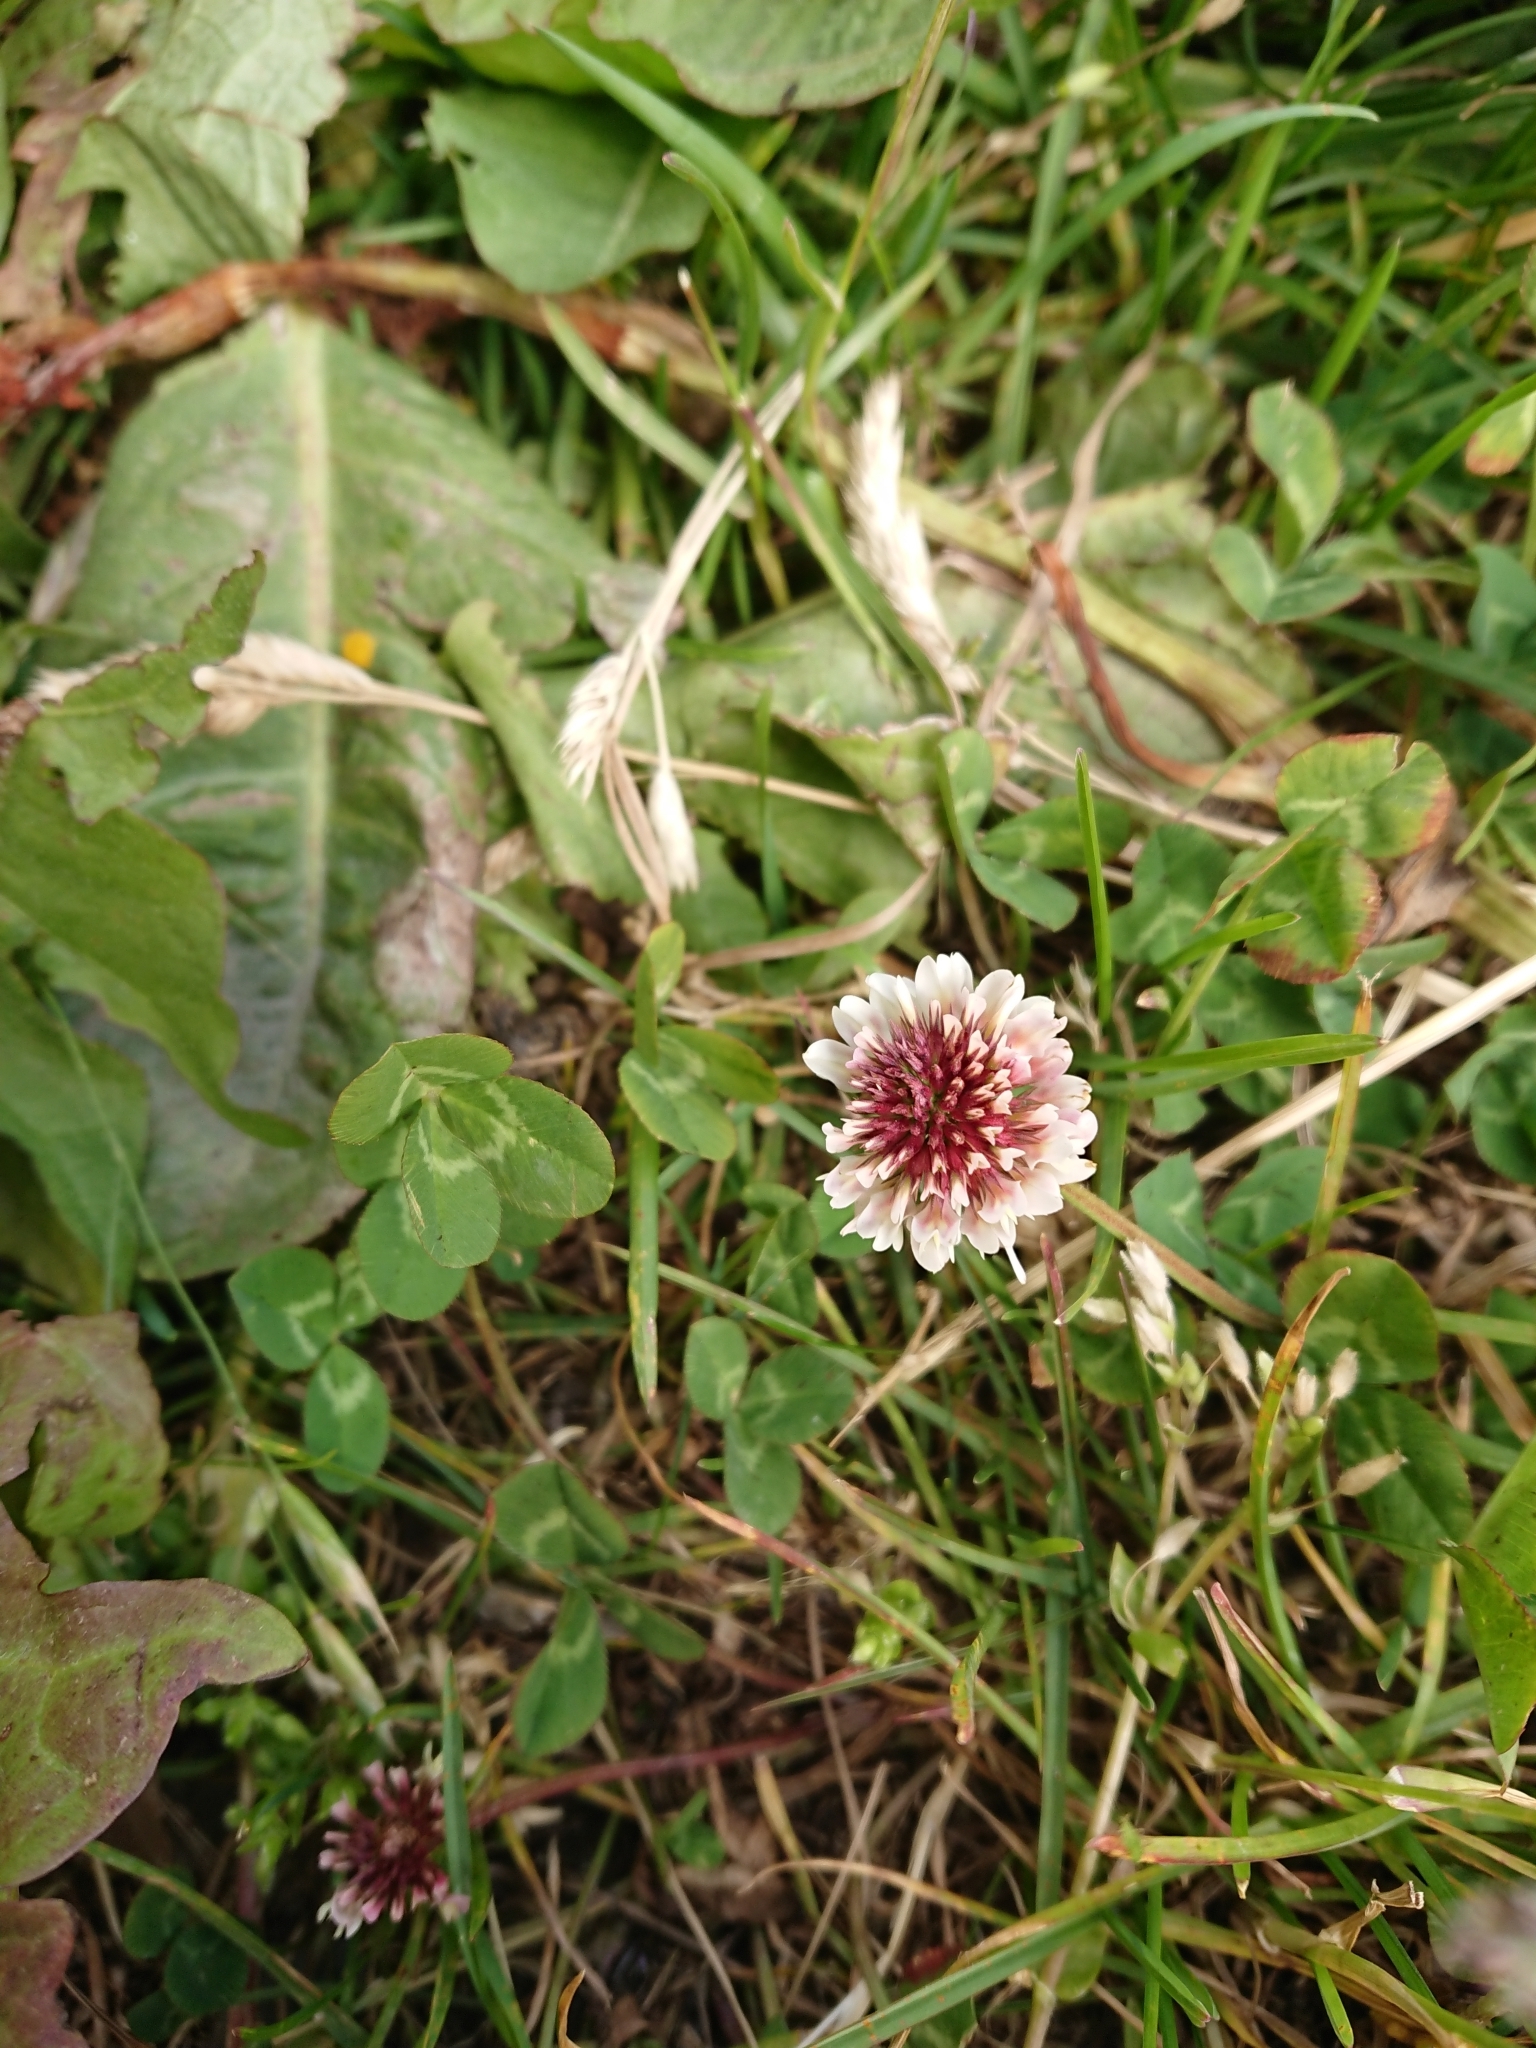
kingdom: Plantae
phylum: Tracheophyta
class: Magnoliopsida
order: Fabales
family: Fabaceae
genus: Trifolium
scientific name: Trifolium repens
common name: White clover
